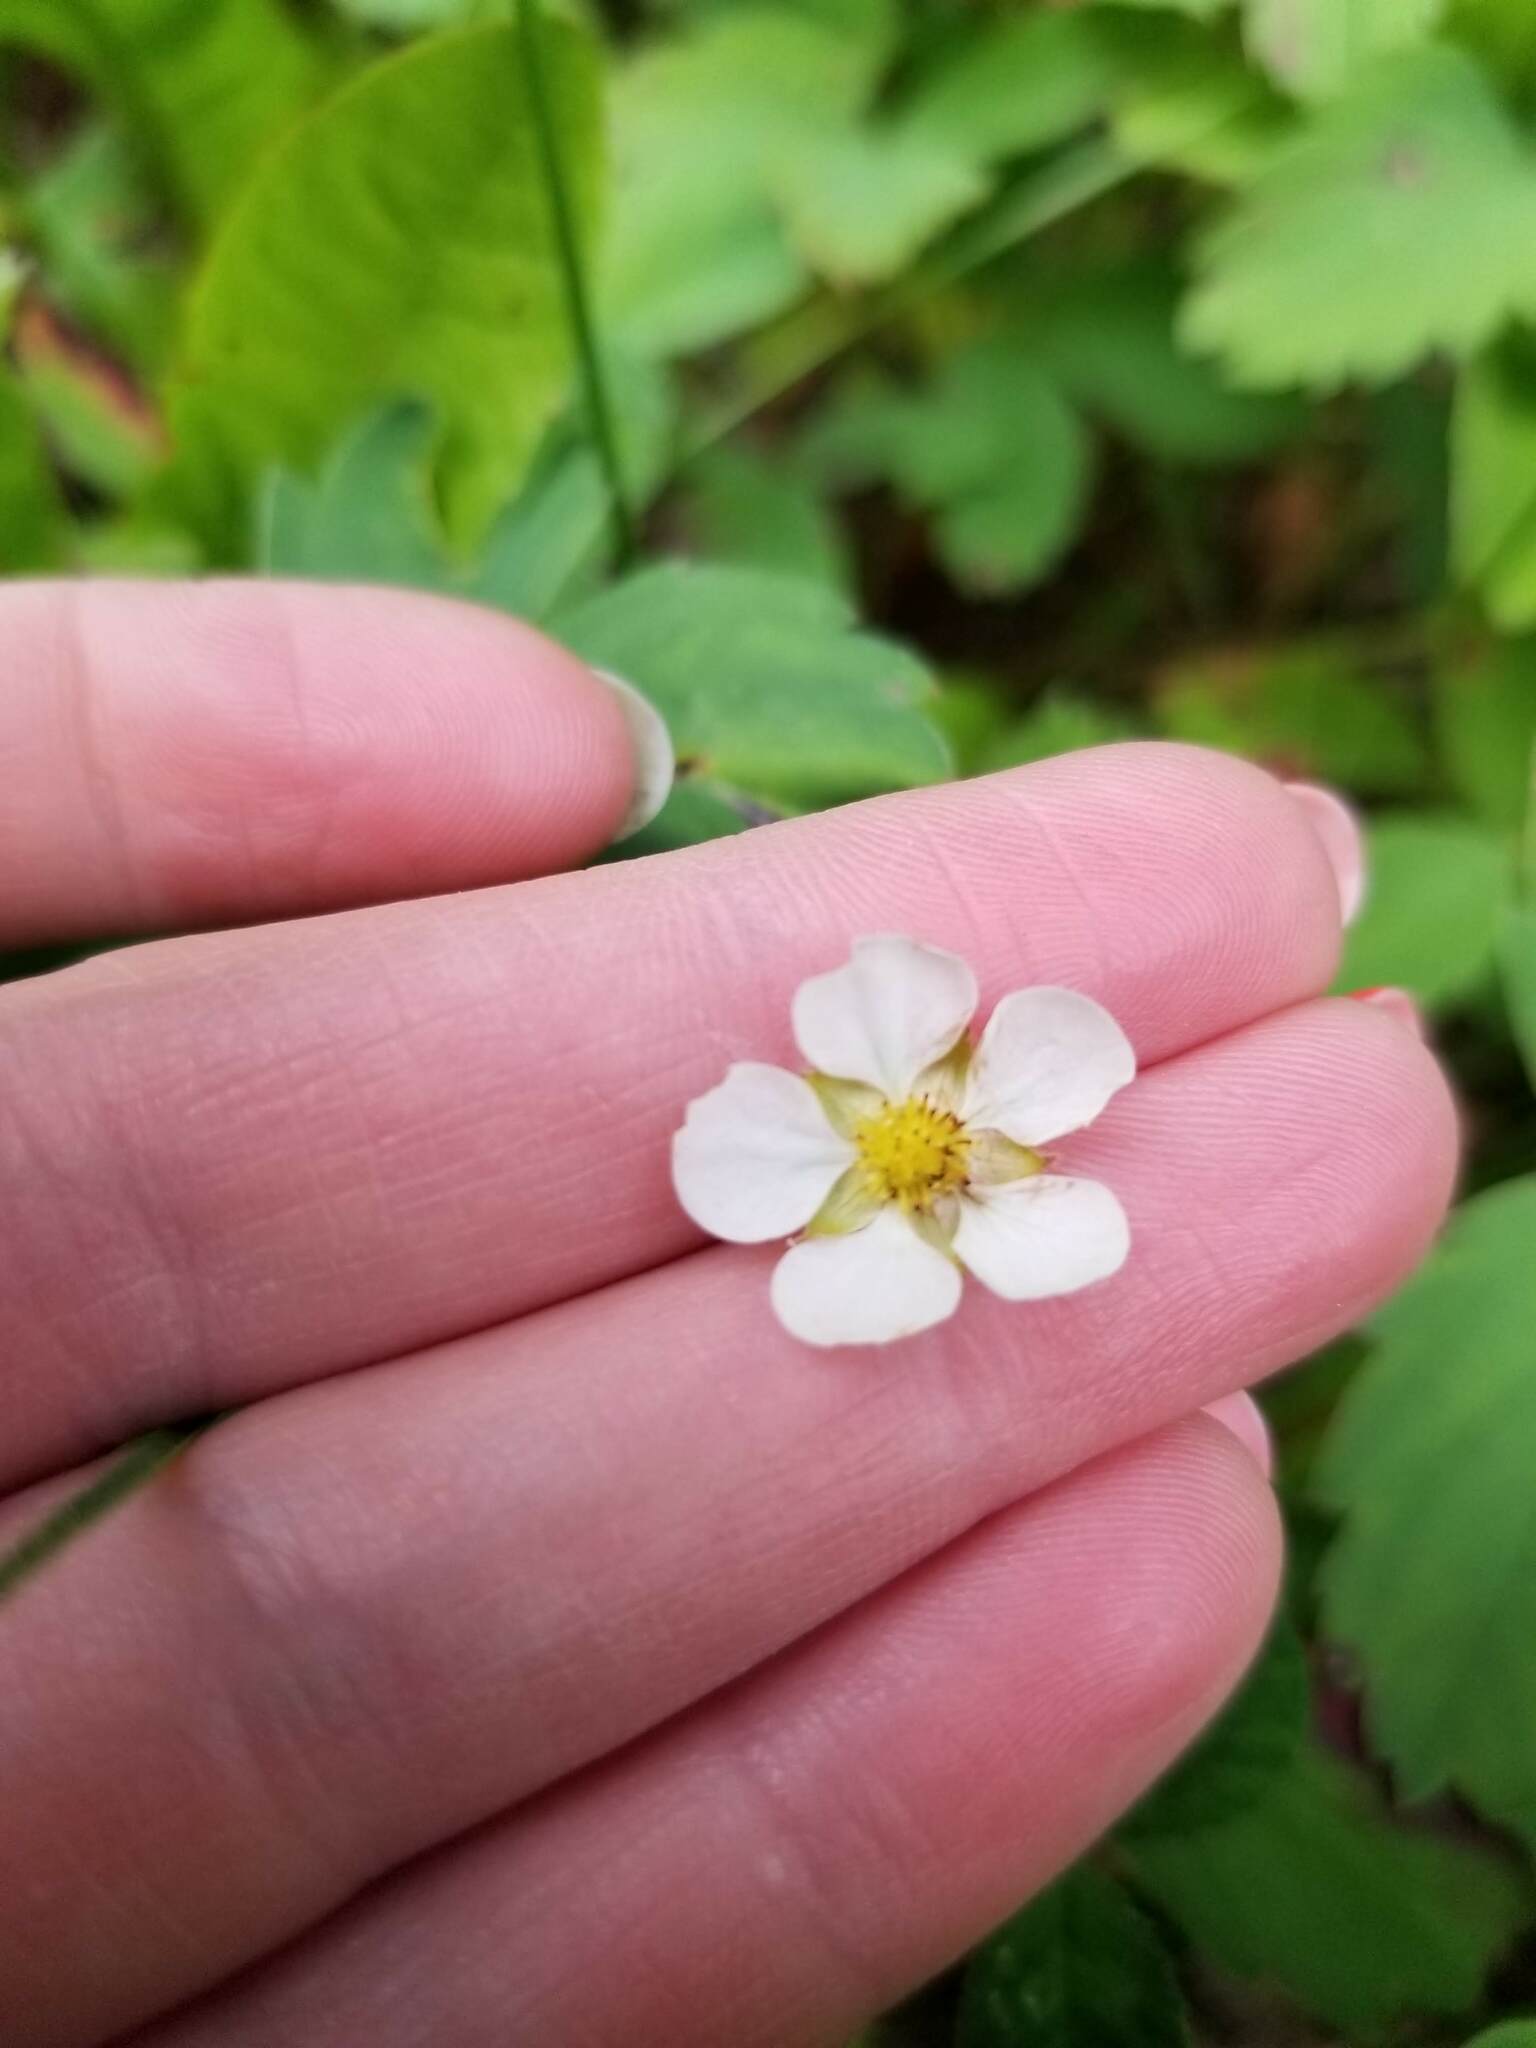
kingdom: Plantae
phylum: Tracheophyta
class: Magnoliopsida
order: Rosales
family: Rosaceae
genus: Fragaria
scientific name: Fragaria virginiana
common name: Thickleaved wild strawberry
